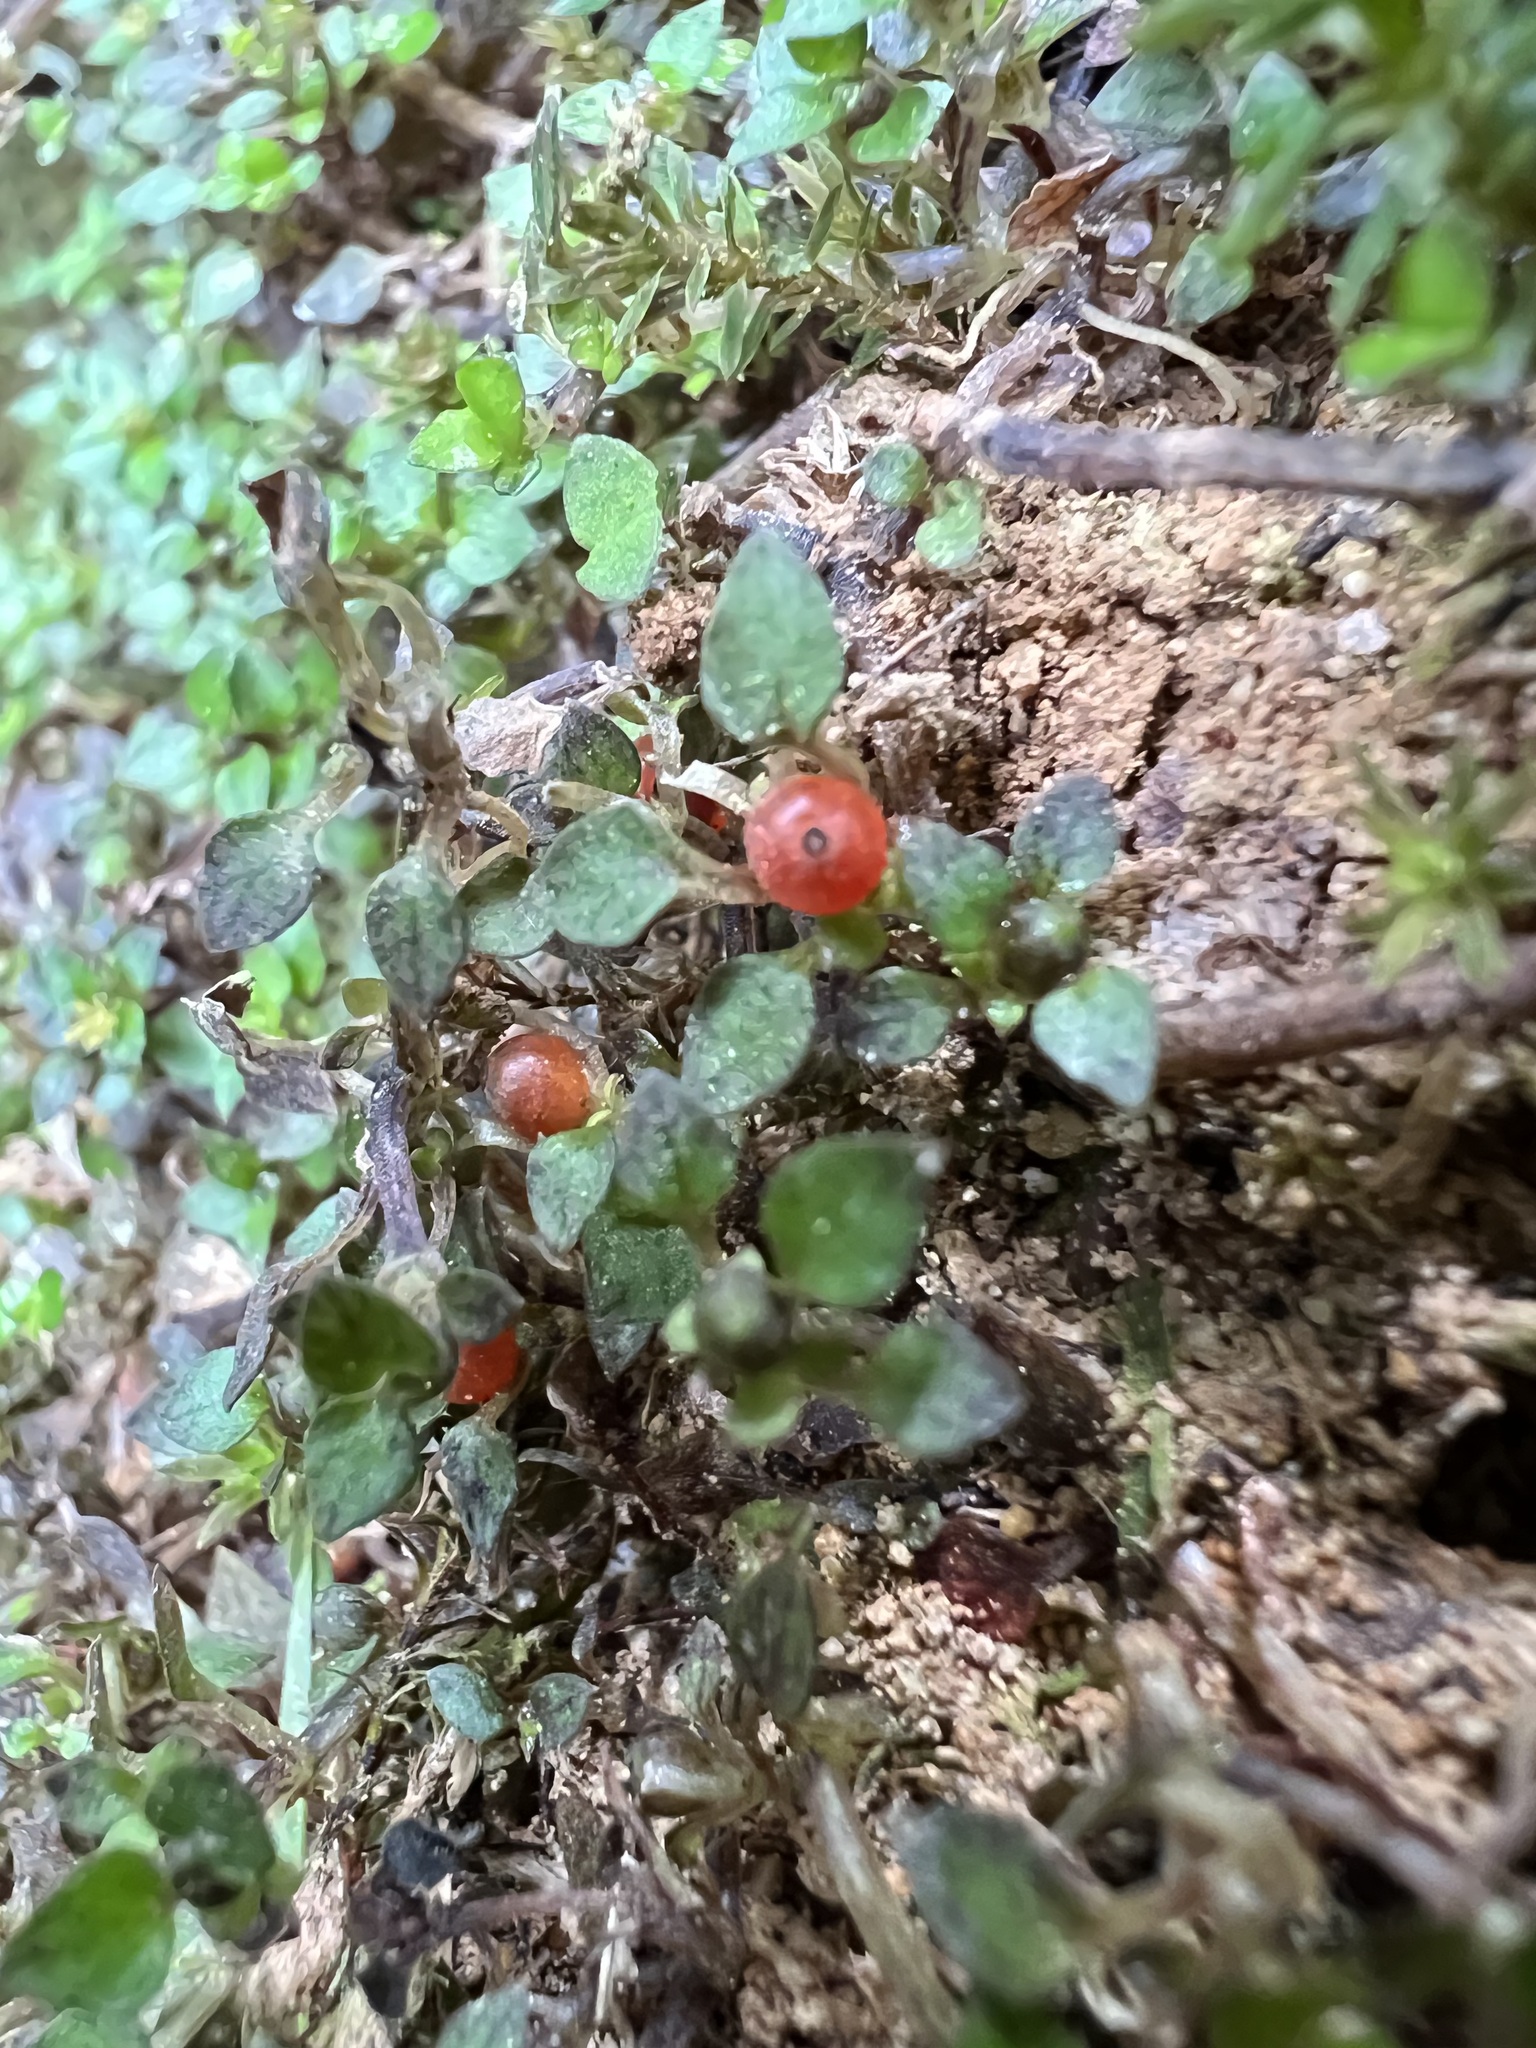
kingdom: Plantae
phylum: Tracheophyta
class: Magnoliopsida
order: Gentianales
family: Rubiaceae
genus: Nertera
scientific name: Nertera granadensis
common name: Beadplant
